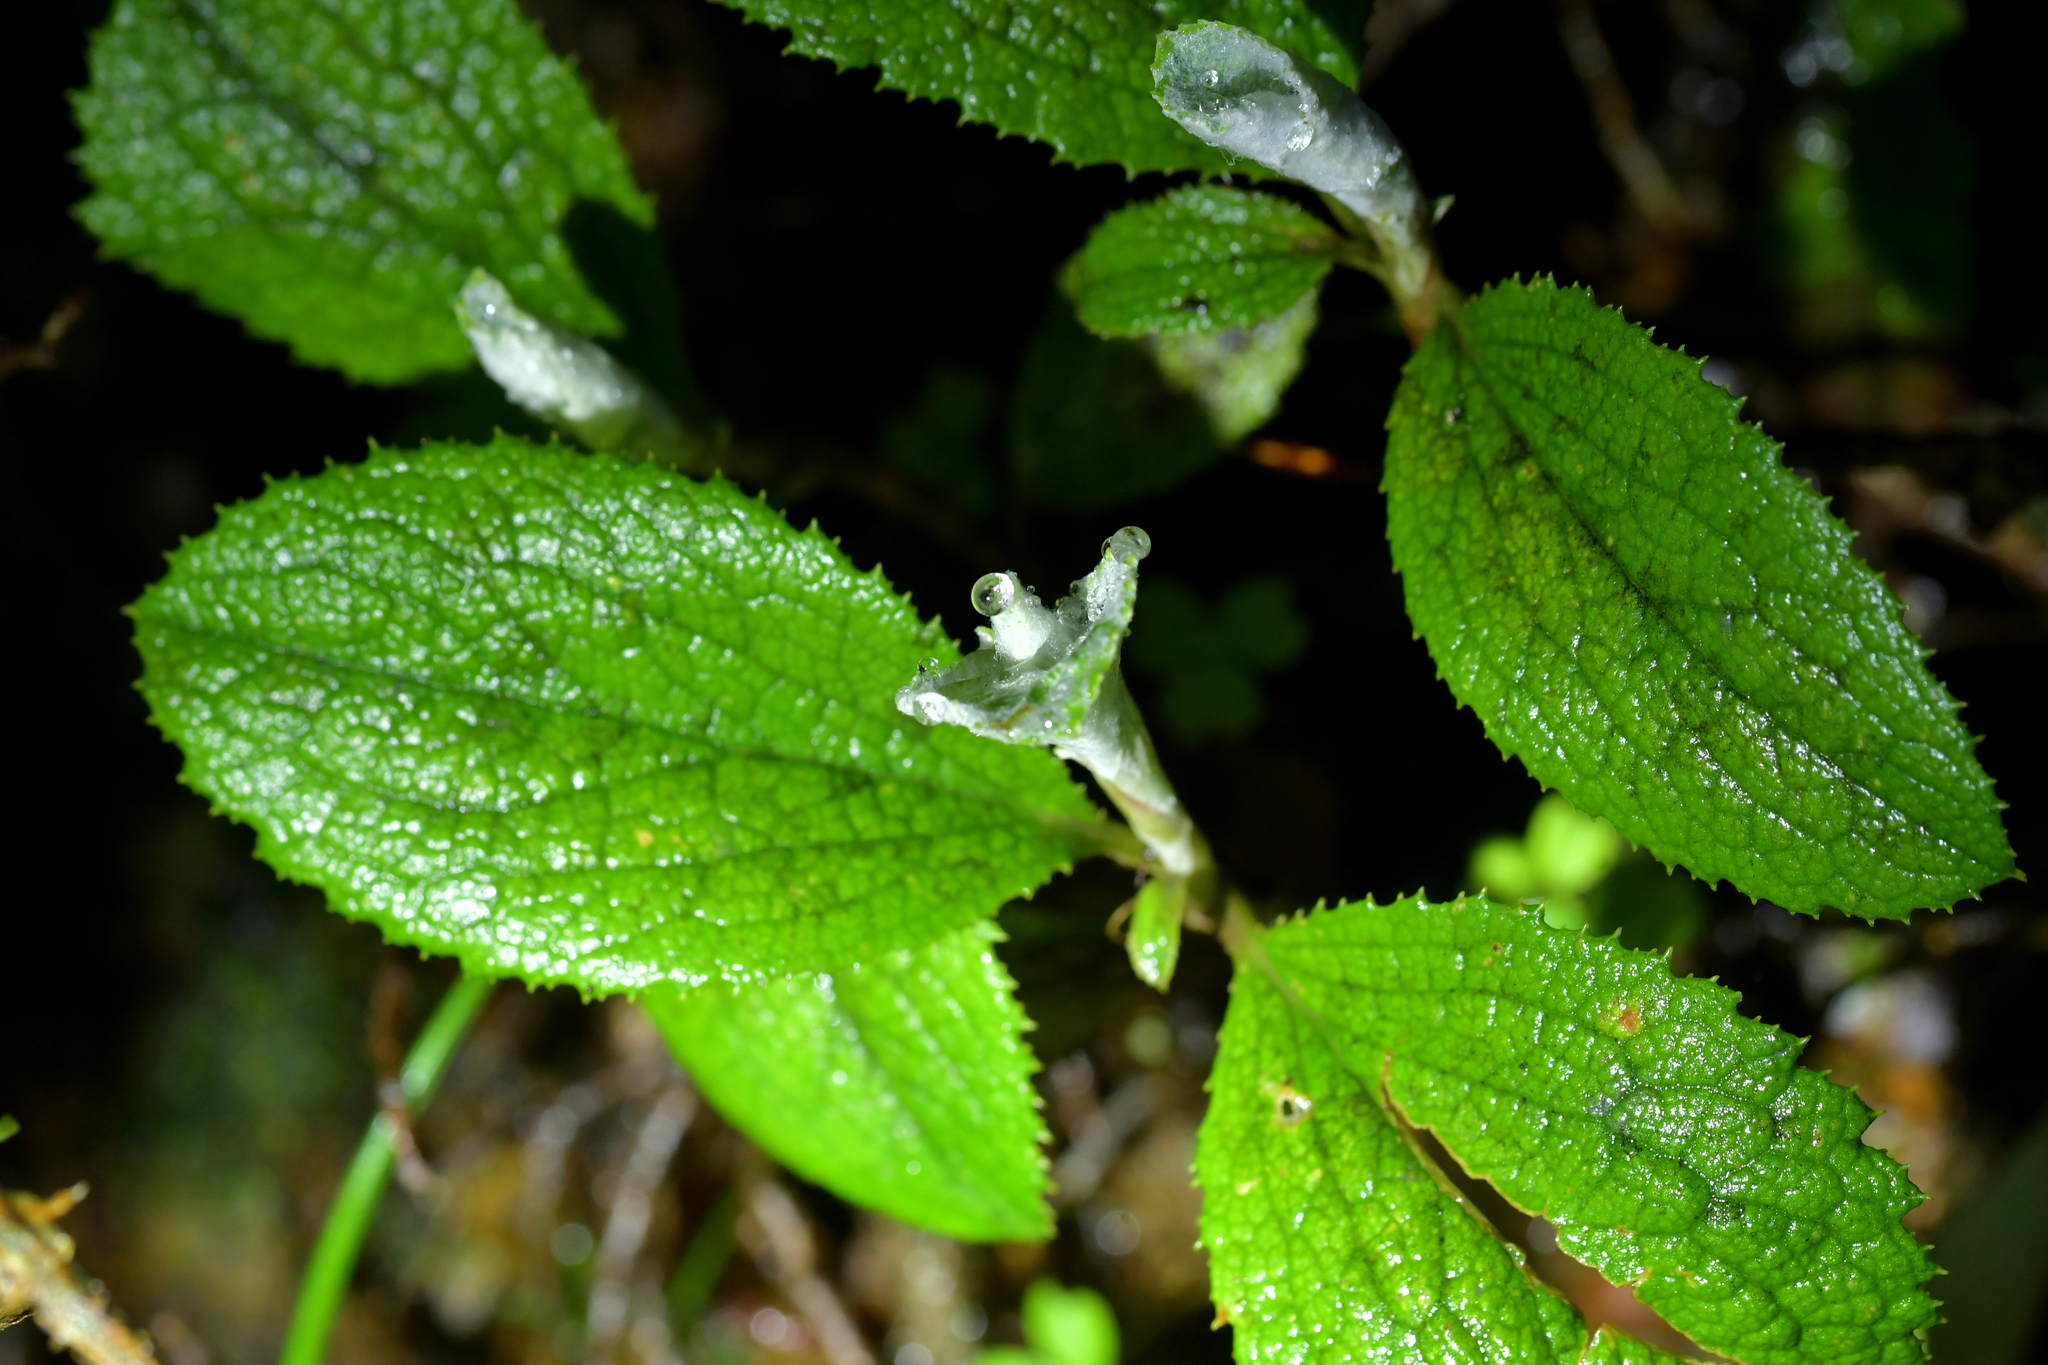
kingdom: Plantae
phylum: Tracheophyta
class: Magnoliopsida
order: Asterales
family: Asteraceae
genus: Macrolearia
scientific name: Macrolearia colensoi
